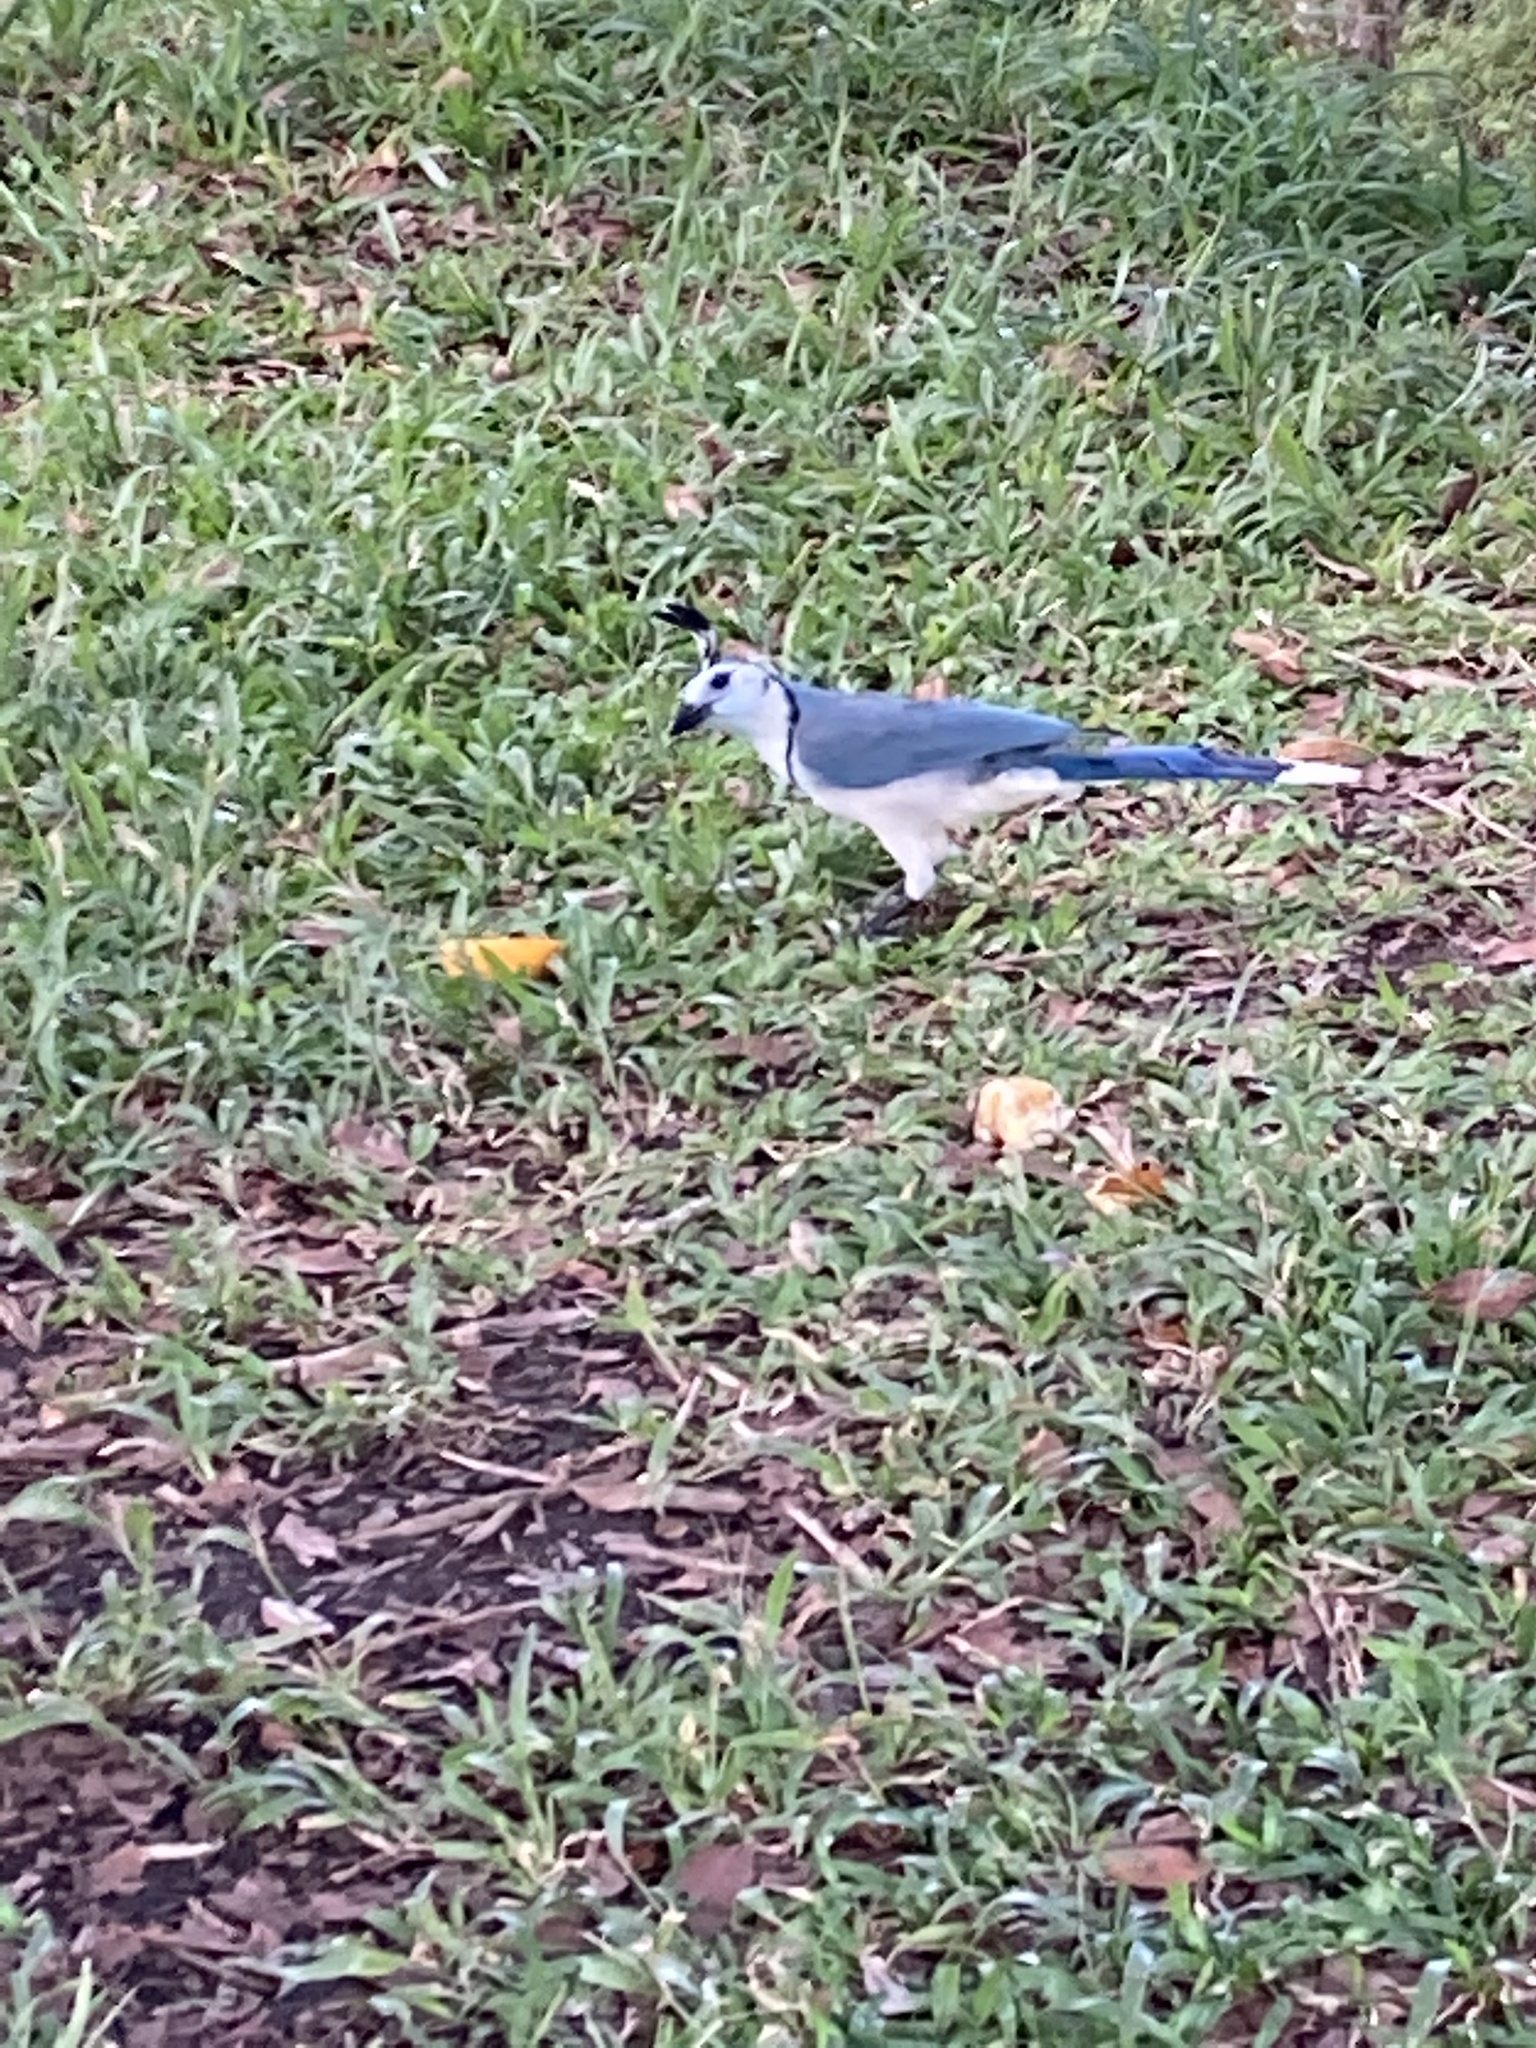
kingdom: Animalia
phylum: Chordata
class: Aves
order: Passeriformes
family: Corvidae
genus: Calocitta
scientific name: Calocitta formosa
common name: White-throated magpie-jay
